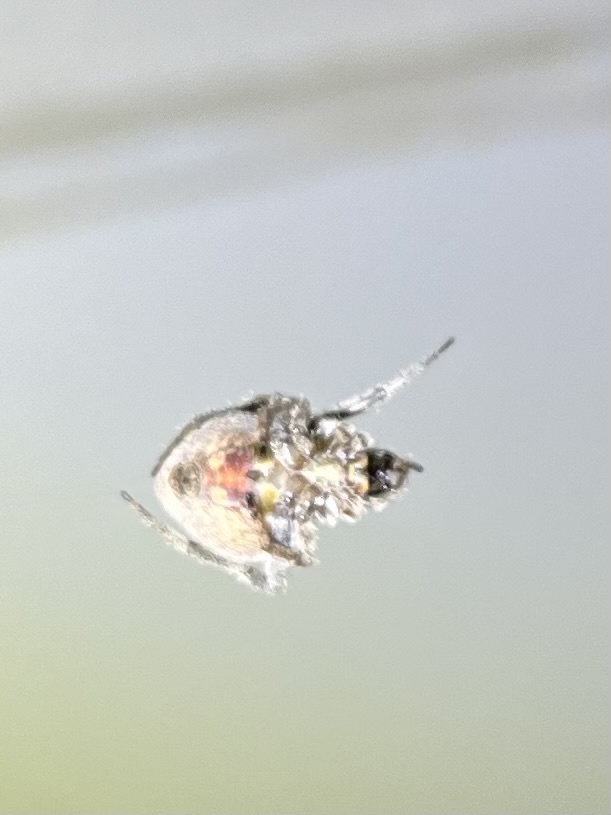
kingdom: Animalia
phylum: Arthropoda
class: Arachnida
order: Araneae
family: Araneidae
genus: Neoscona
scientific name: Neoscona triangula
